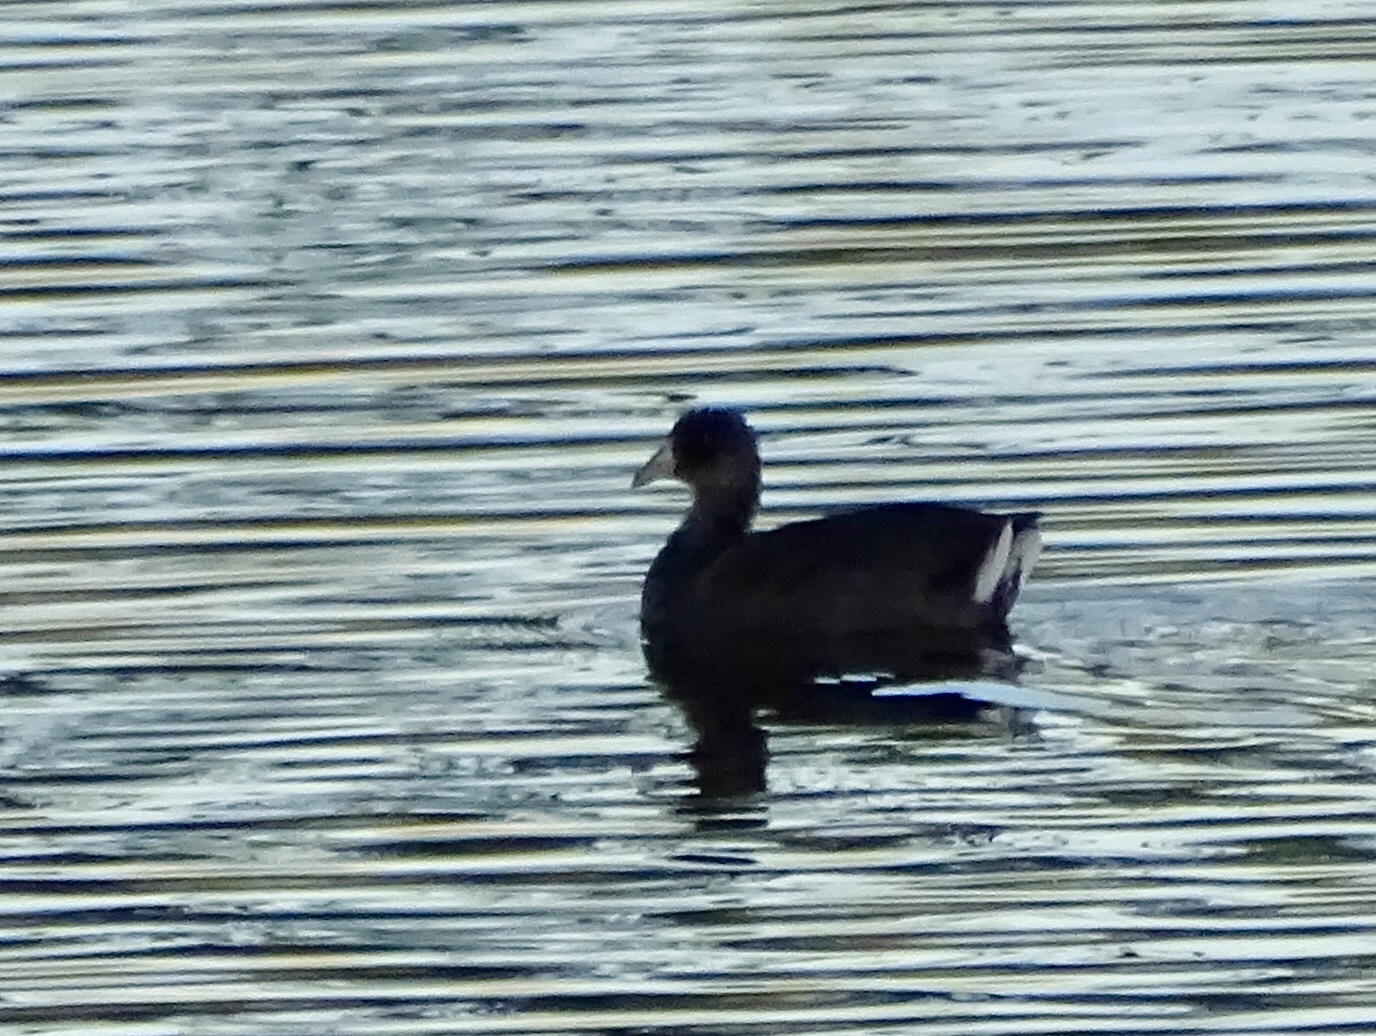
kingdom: Animalia
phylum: Chordata
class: Aves
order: Gruiformes
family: Rallidae
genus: Fulica
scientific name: Fulica americana
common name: American coot
